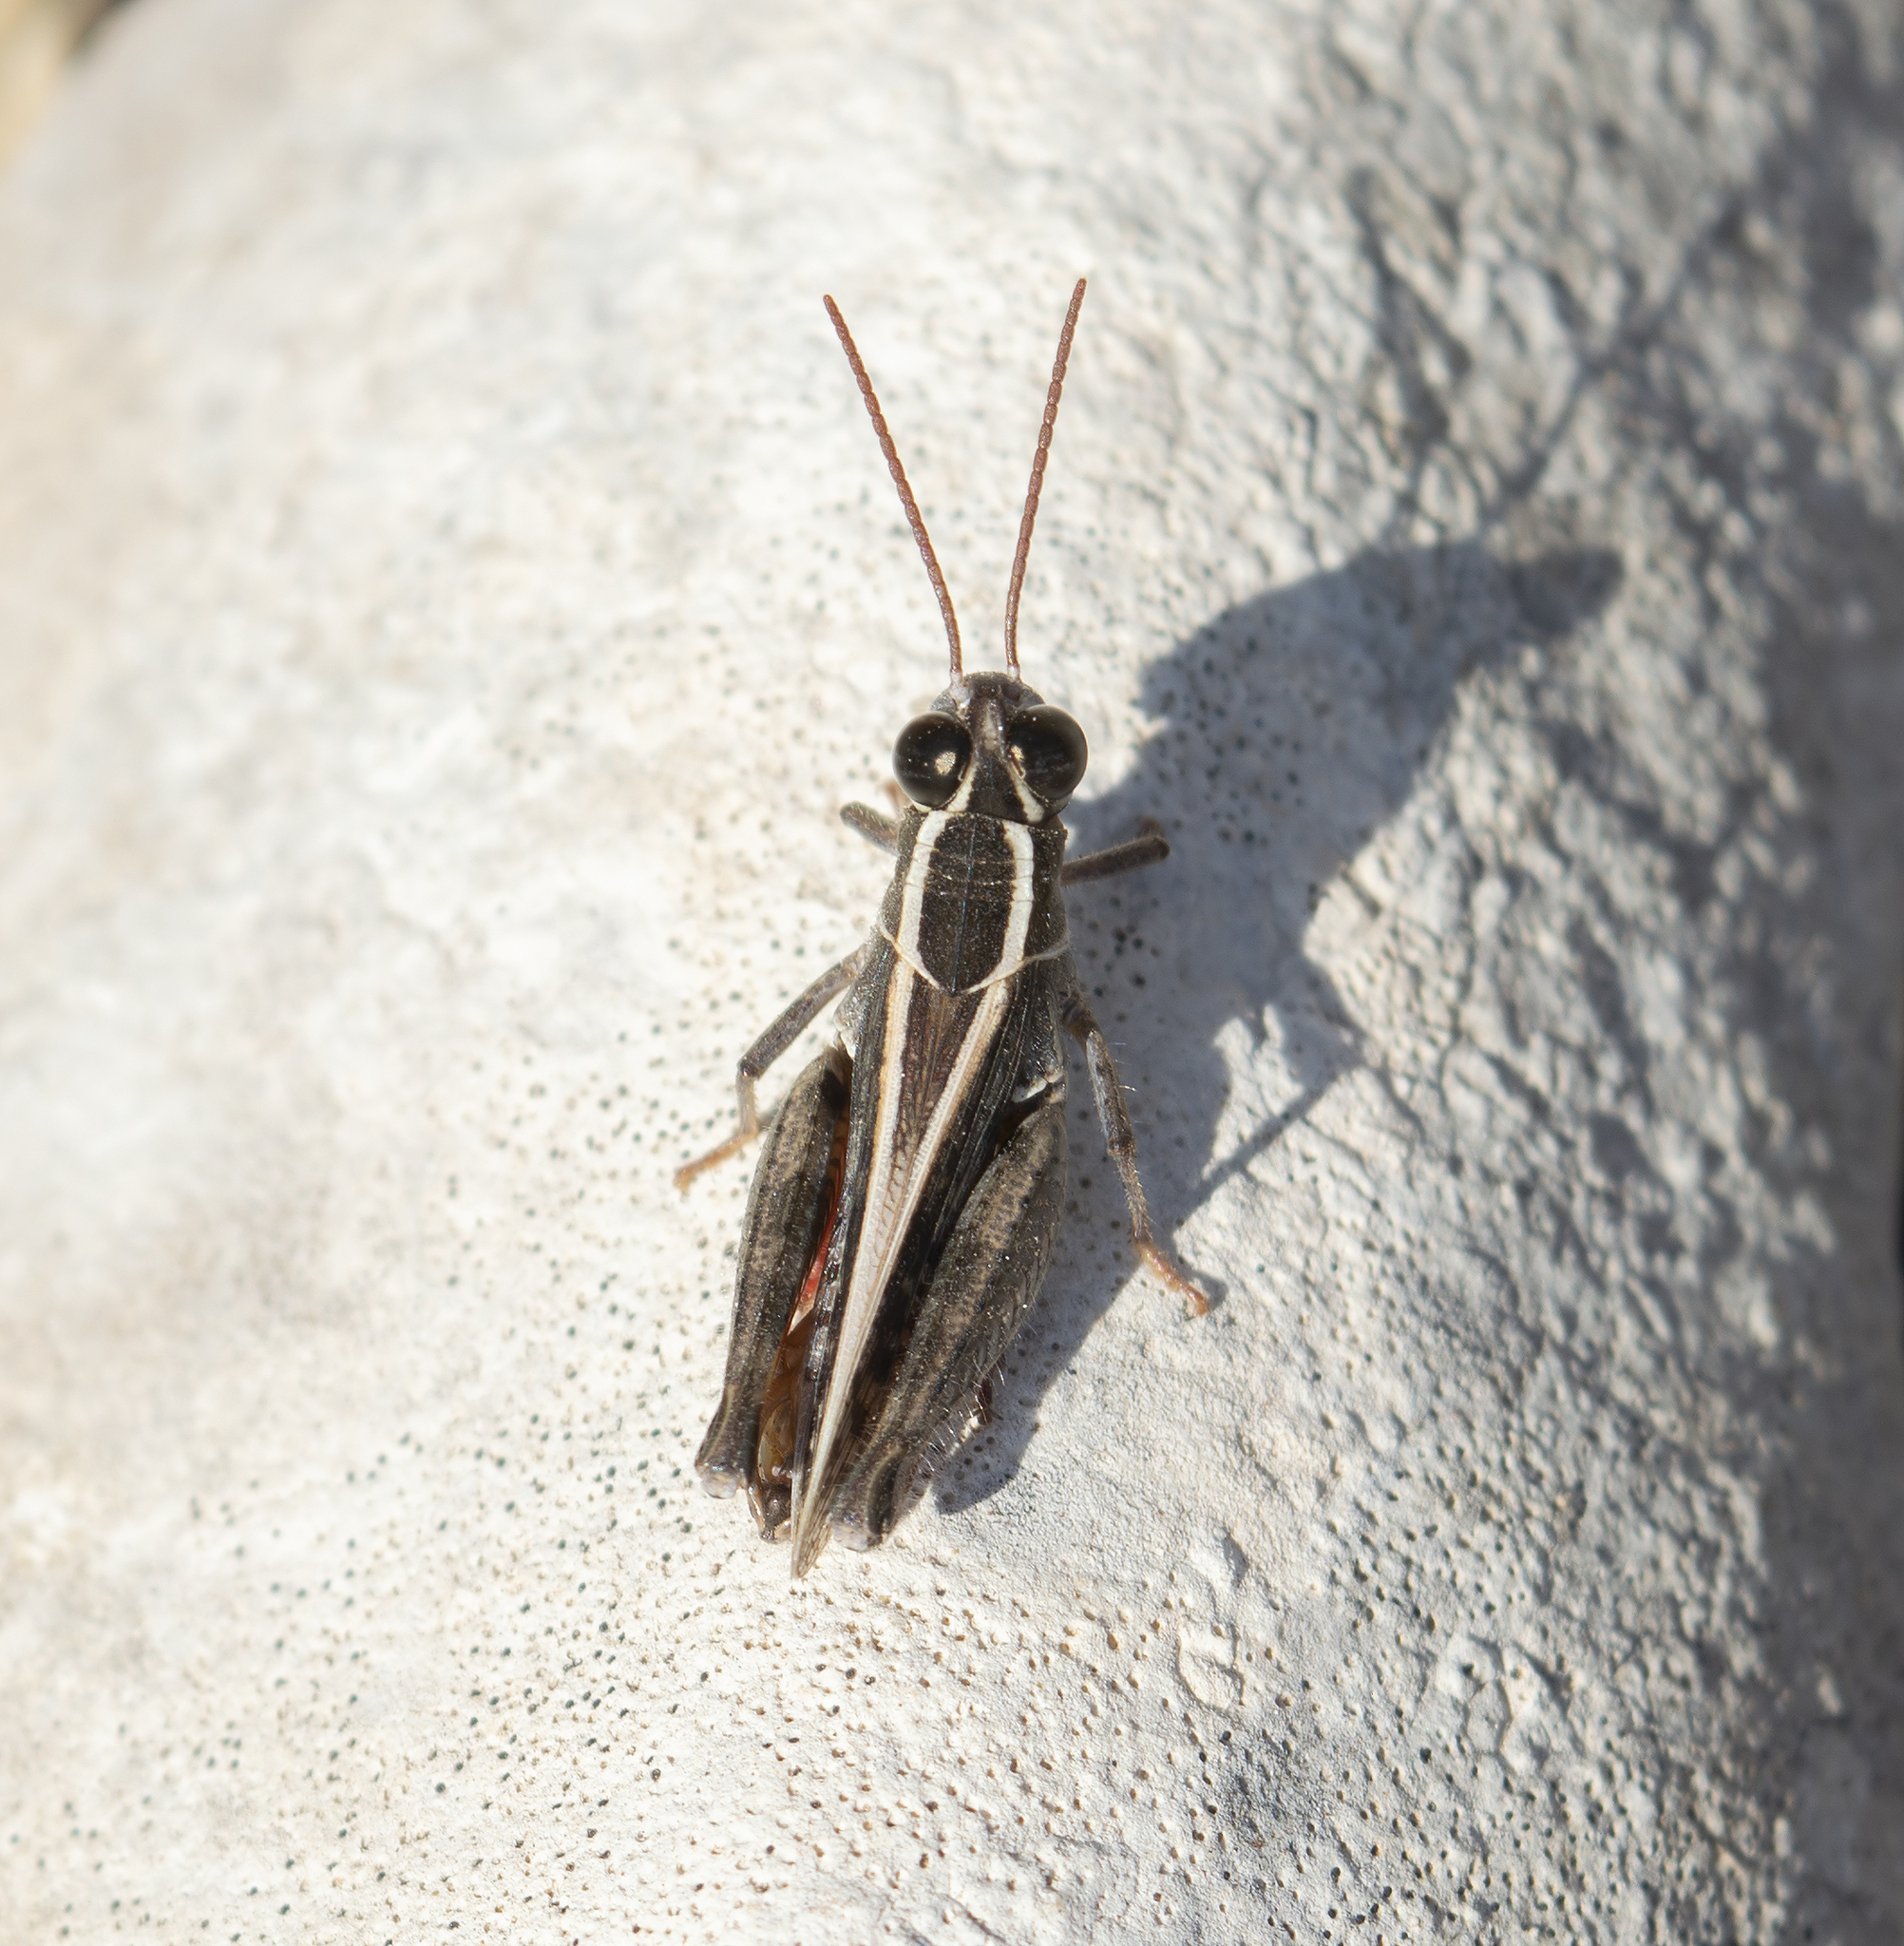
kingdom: Animalia
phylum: Arthropoda
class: Insecta
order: Orthoptera
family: Acrididae
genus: Calliptamus
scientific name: Calliptamus barbarus
